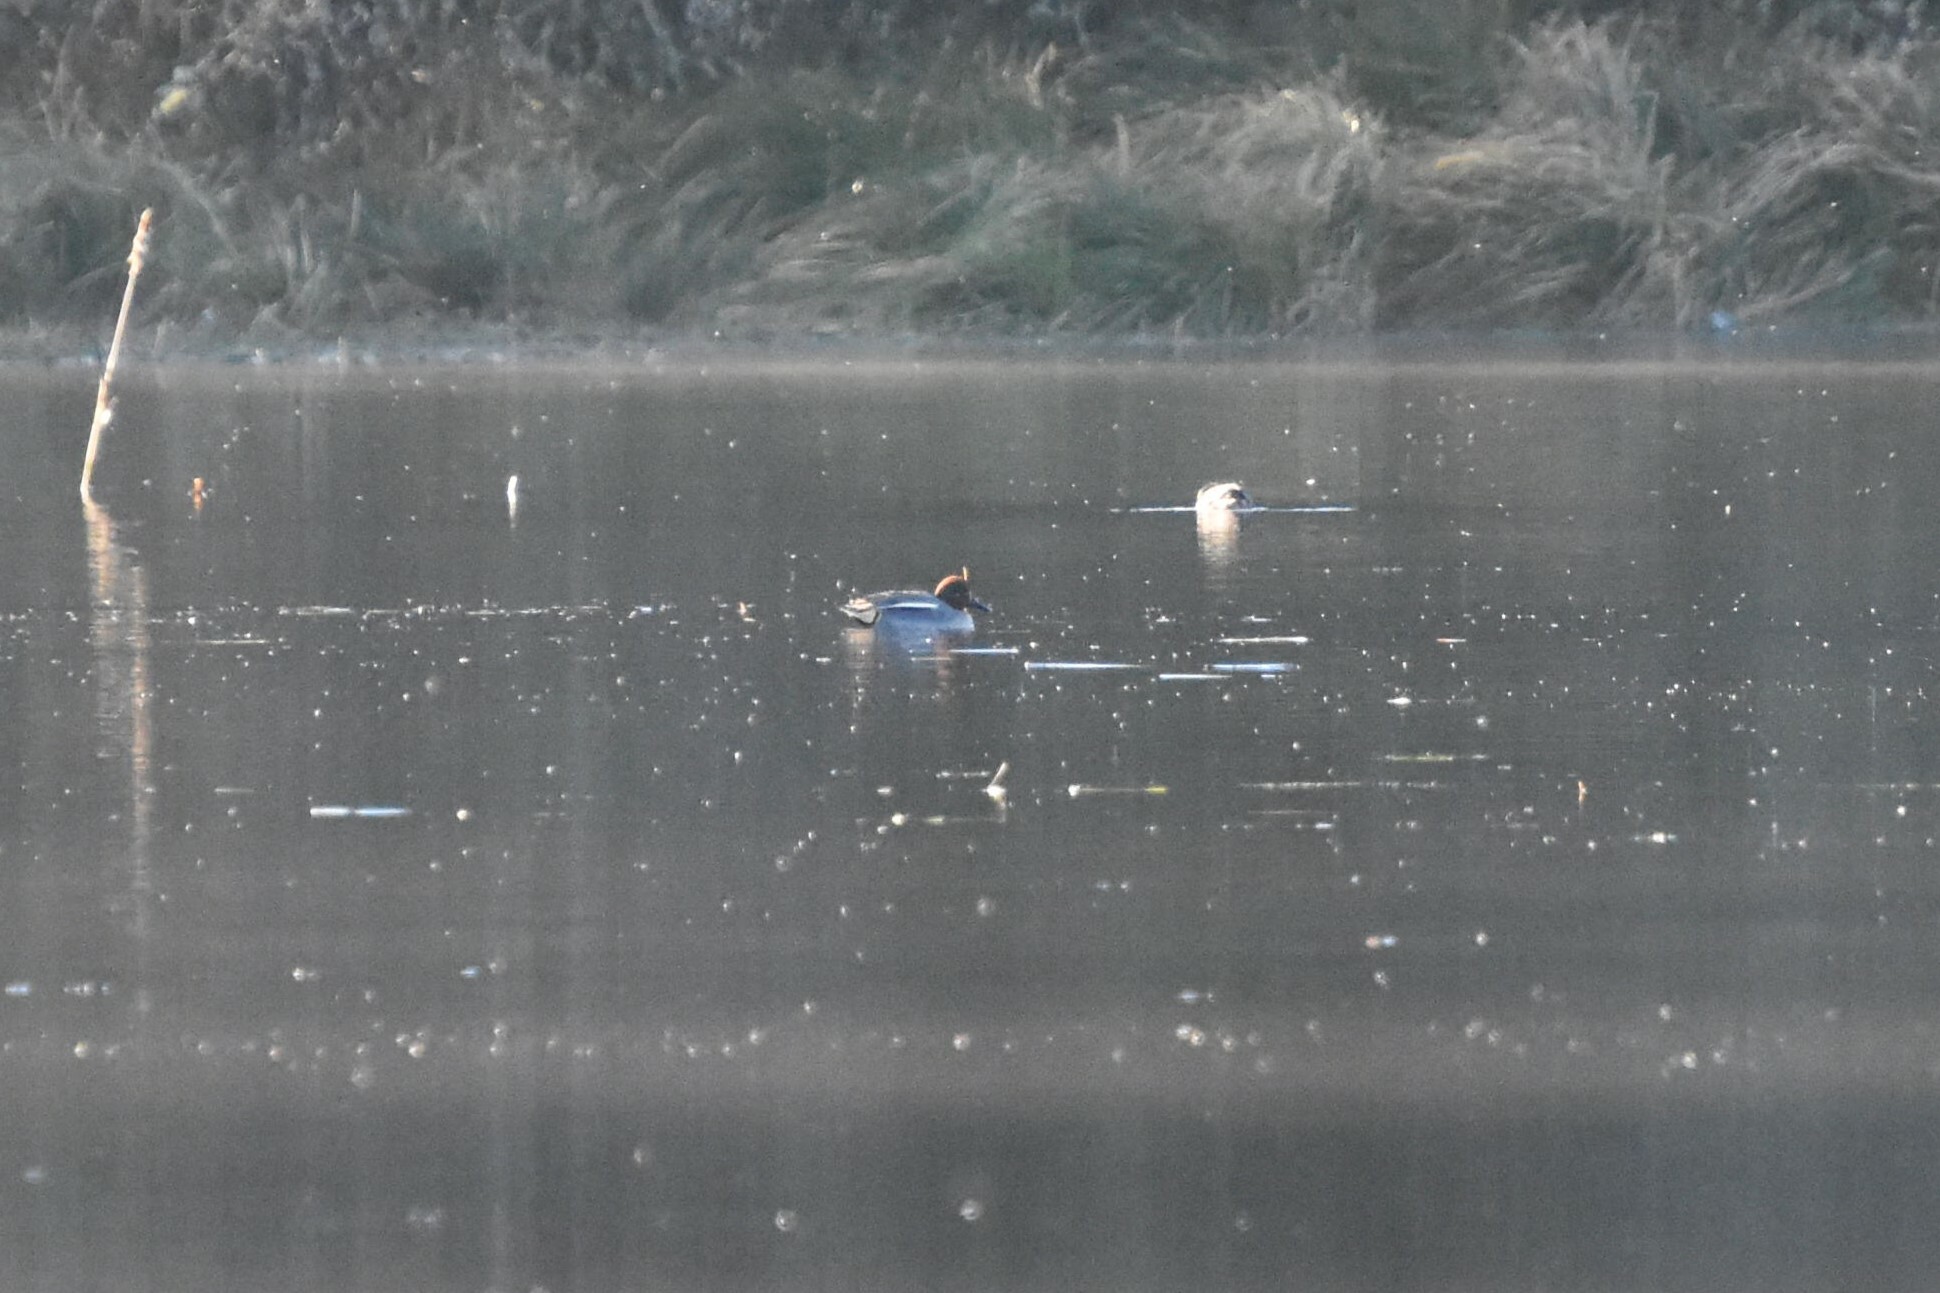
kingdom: Animalia
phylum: Chordata
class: Aves
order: Anseriformes
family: Anatidae
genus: Anas
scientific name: Anas crecca
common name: Eurasian teal
